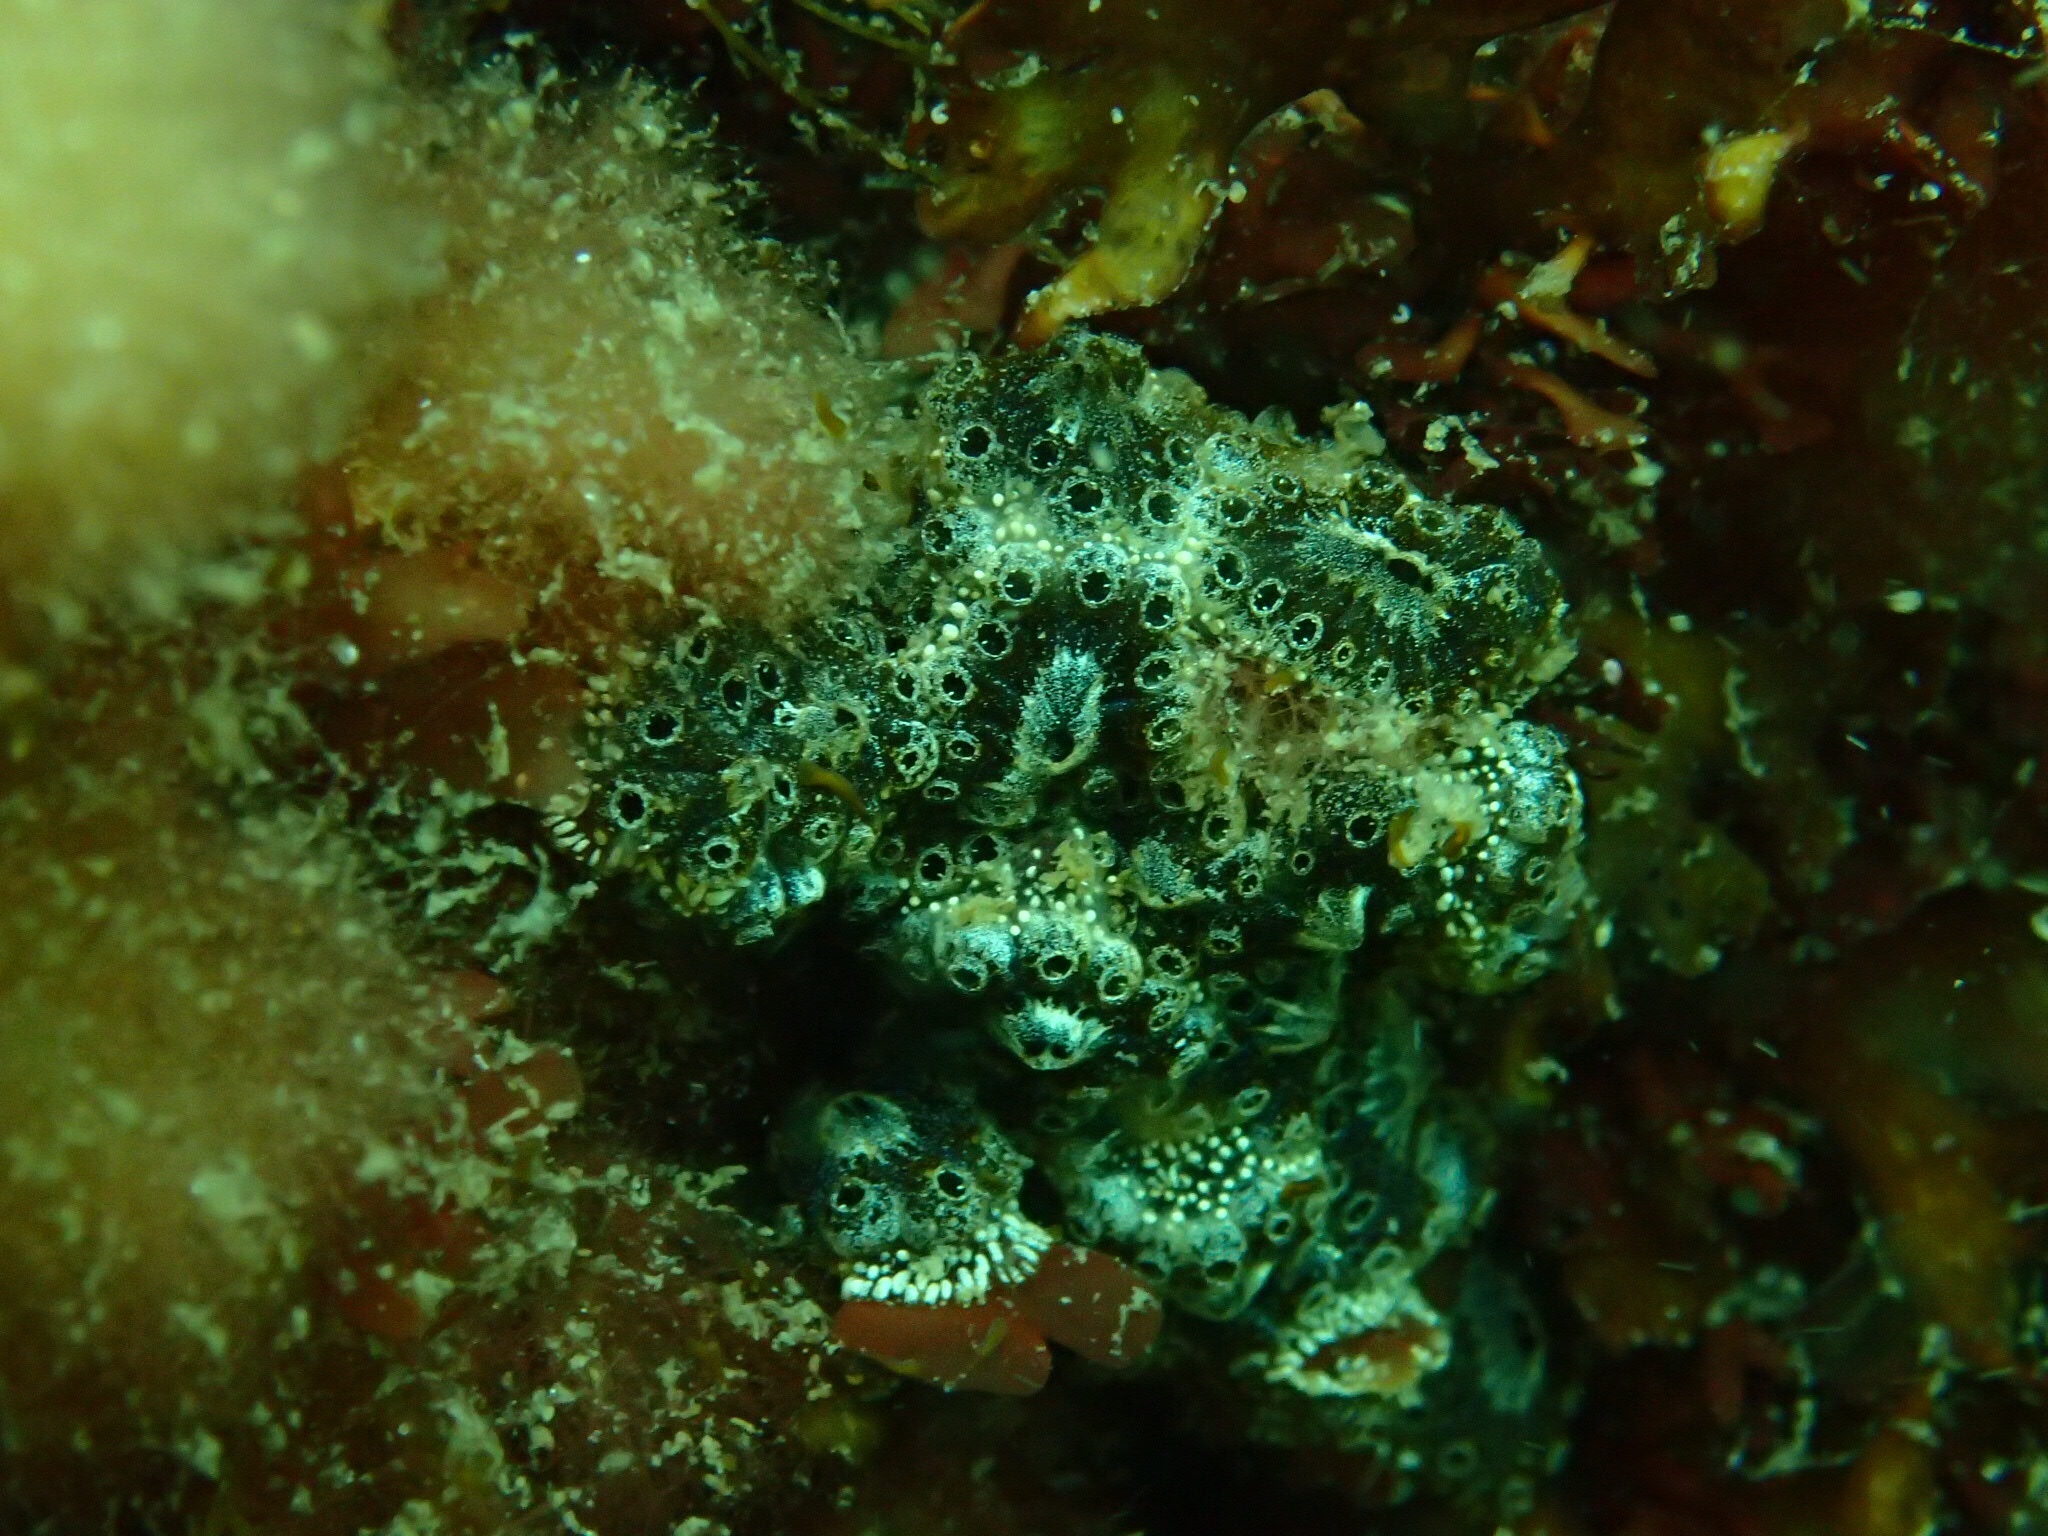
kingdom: Animalia
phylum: Chordata
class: Ascidiacea
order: Stolidobranchia
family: Styelidae
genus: Botryllus
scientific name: Botryllus schlosseri
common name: Golden star tunicate
